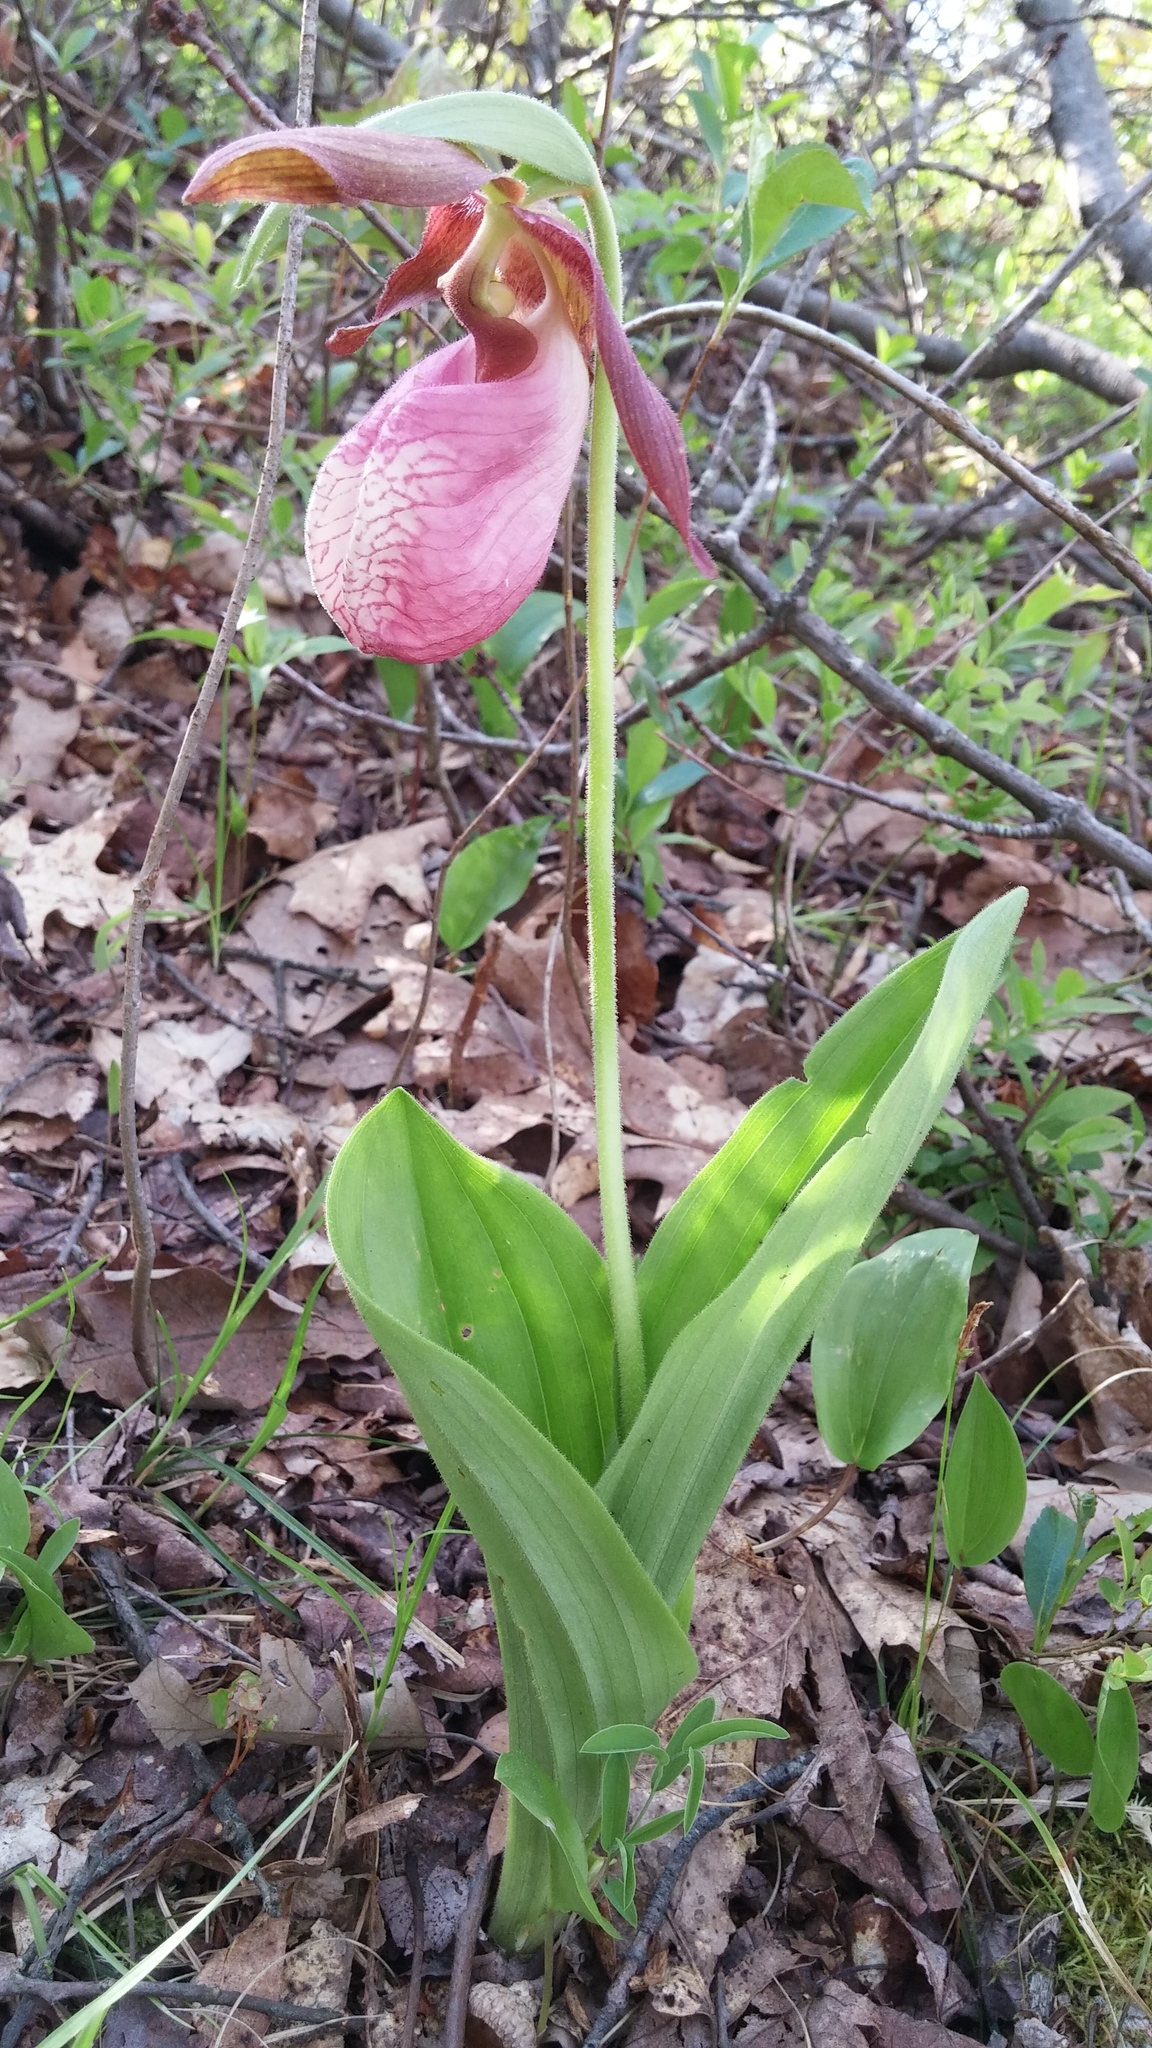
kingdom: Plantae
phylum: Tracheophyta
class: Liliopsida
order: Asparagales
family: Orchidaceae
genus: Cypripedium
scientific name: Cypripedium acaule
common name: Pink lady's-slipper
